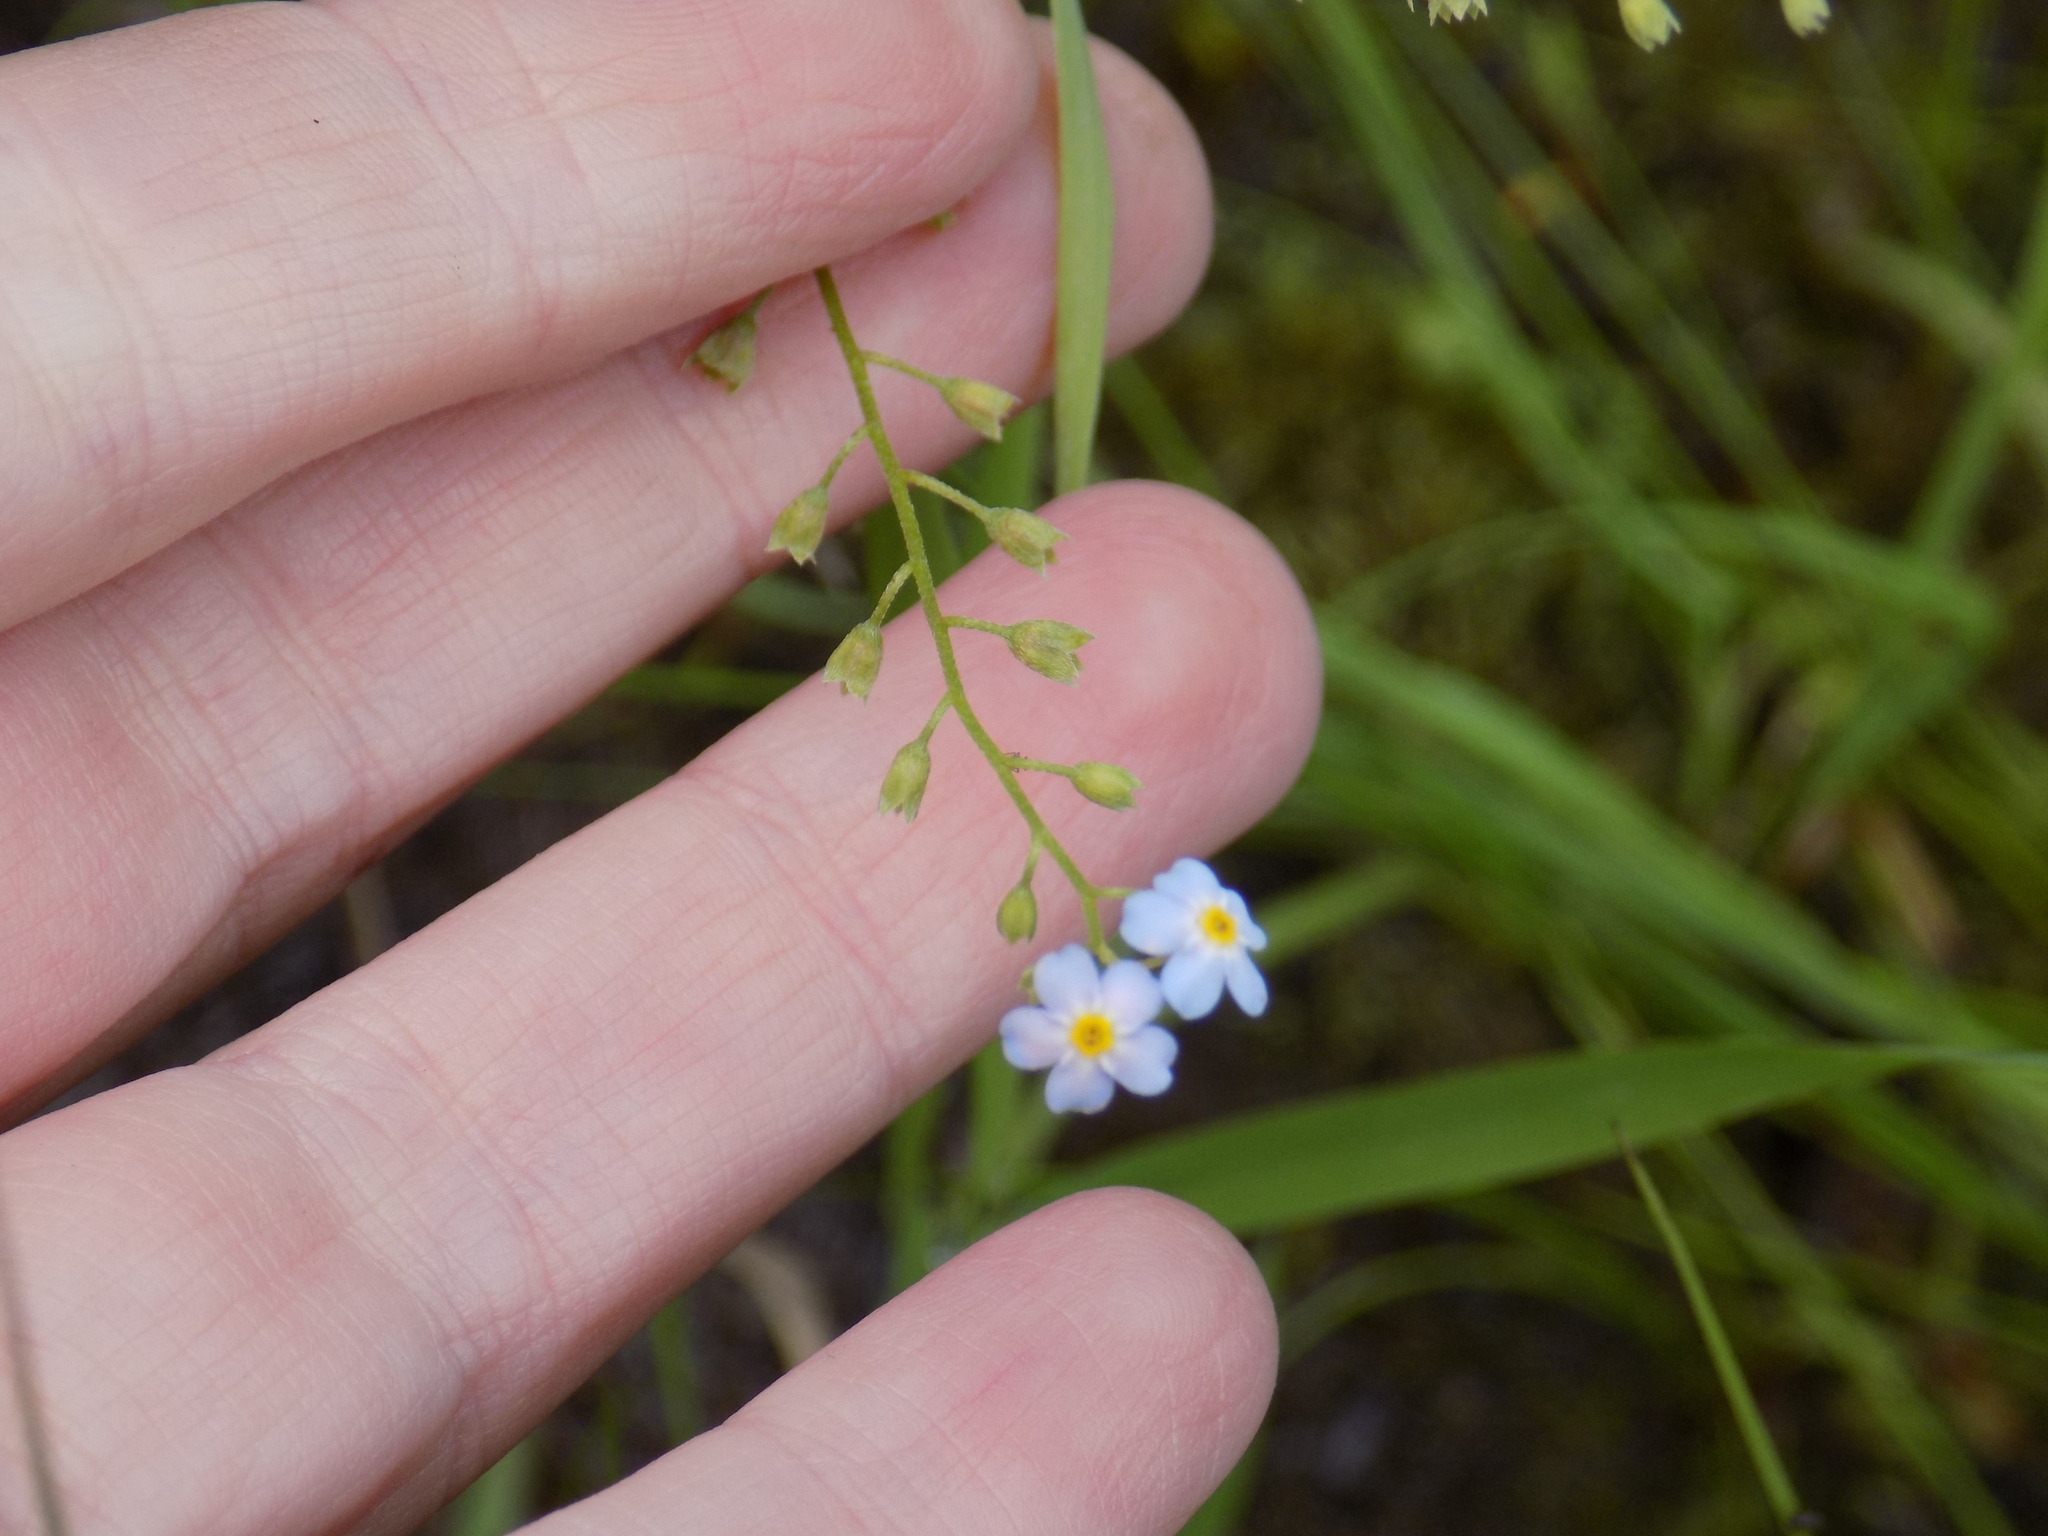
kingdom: Plantae
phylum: Tracheophyta
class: Magnoliopsida
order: Boraginales
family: Boraginaceae
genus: Myosotis
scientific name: Myosotis scorpioides
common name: Water forget-me-not
